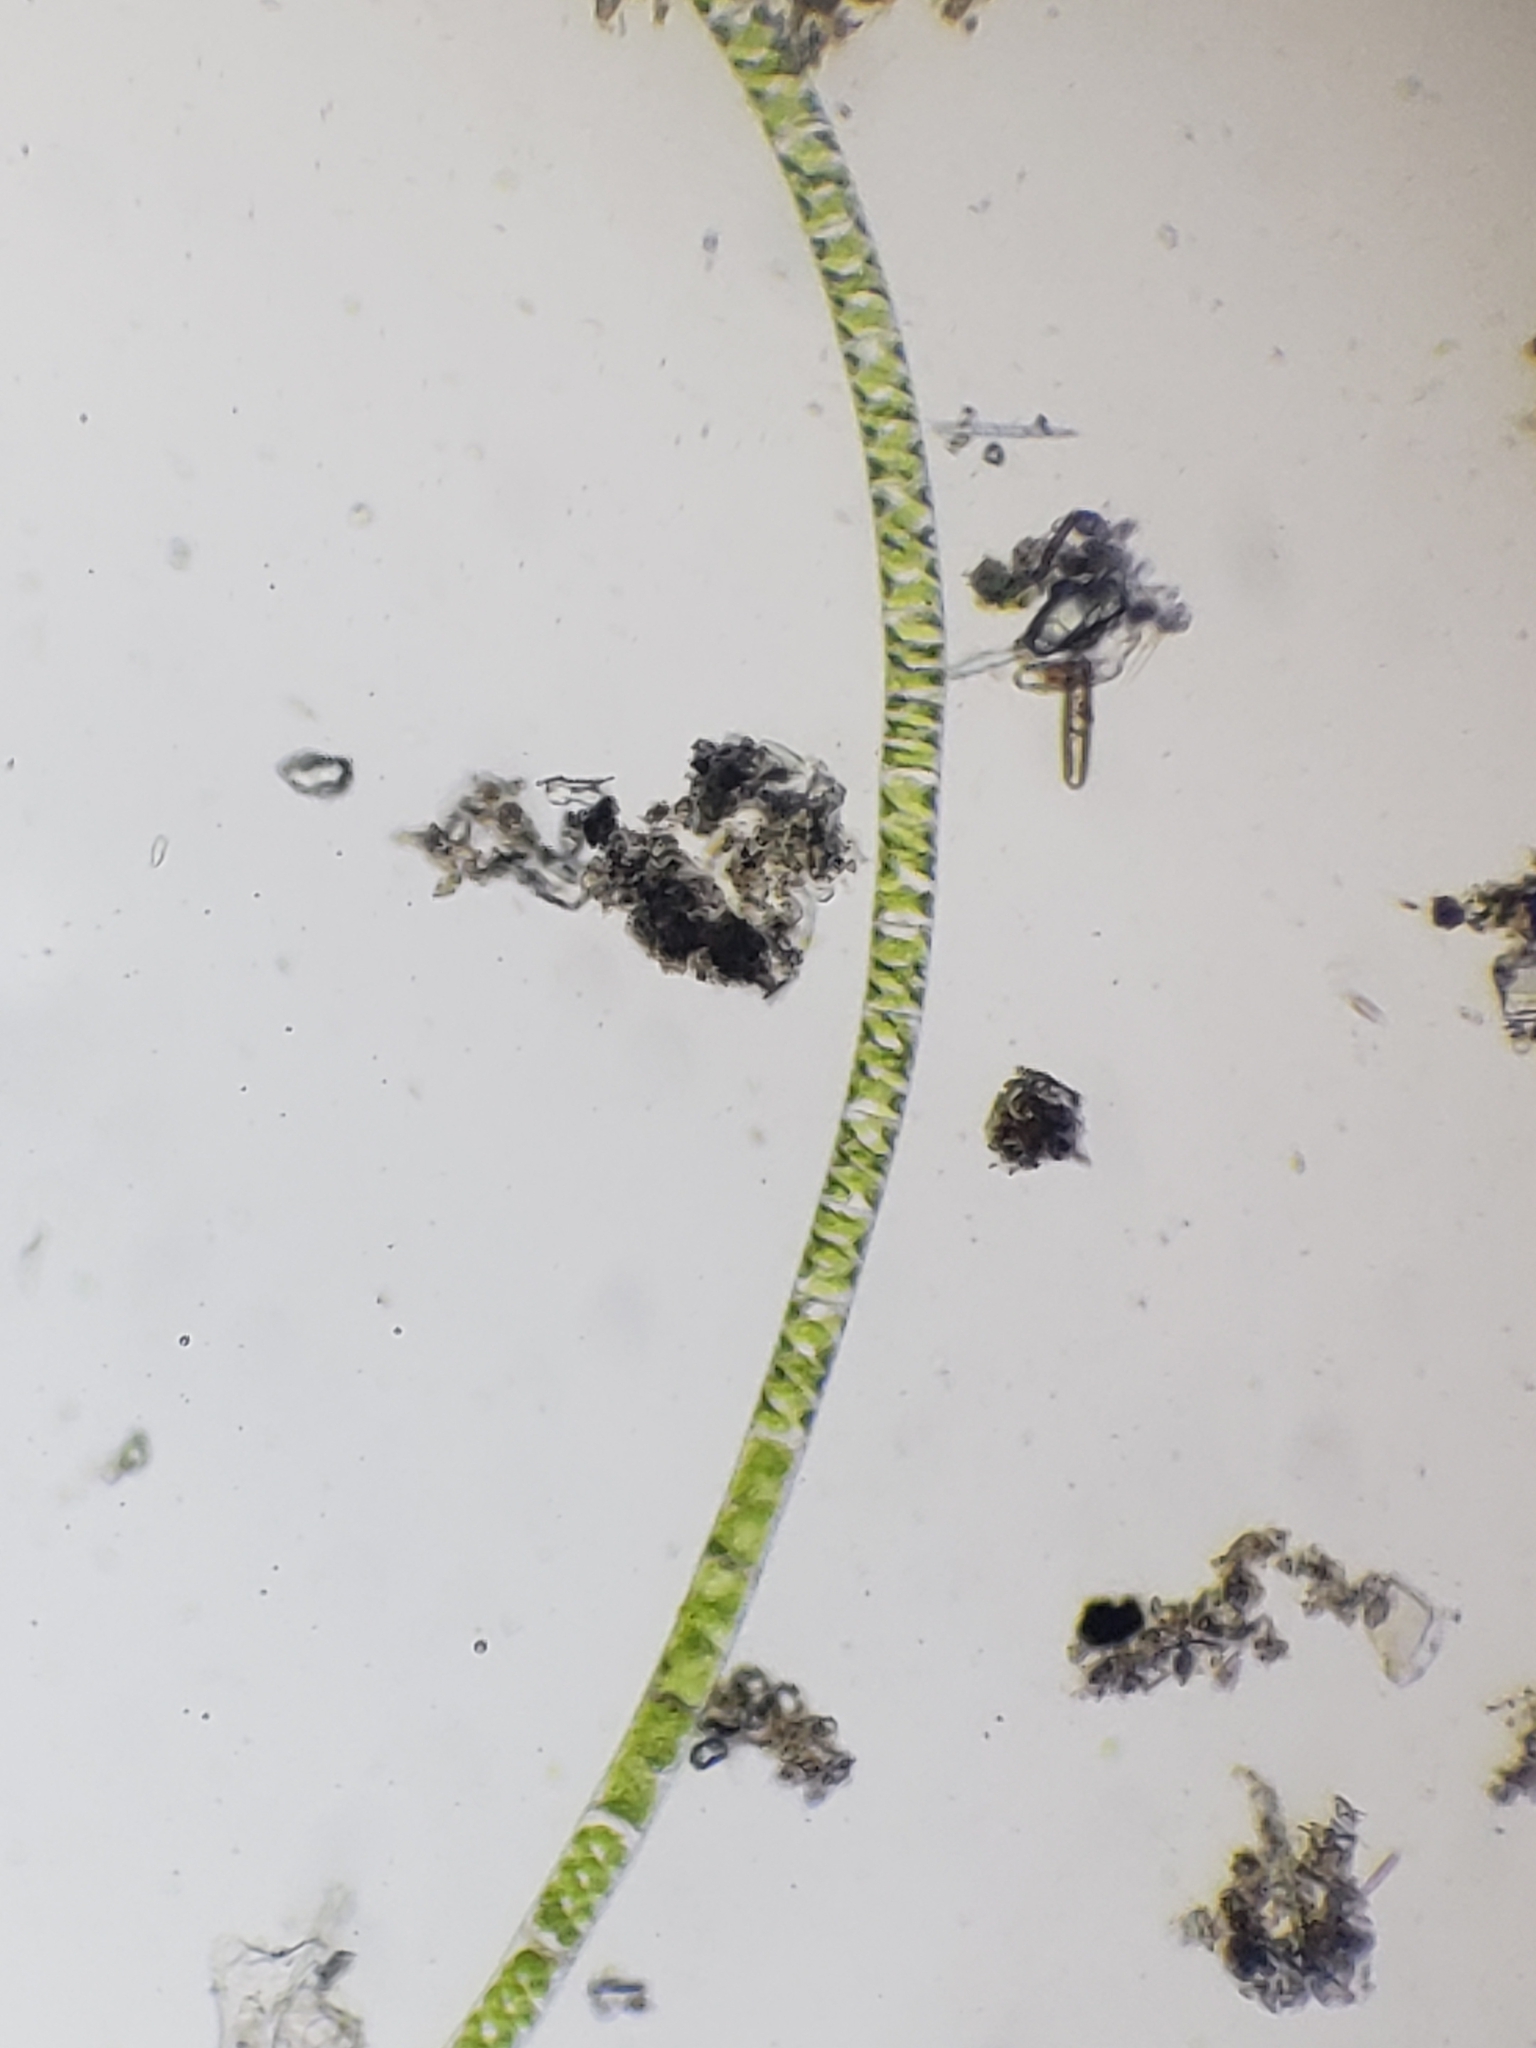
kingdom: Plantae
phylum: Charophyta
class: Zygnematophyceae
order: Zygnematales
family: Zygnemataceae
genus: Spirogyra
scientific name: Spirogyra
